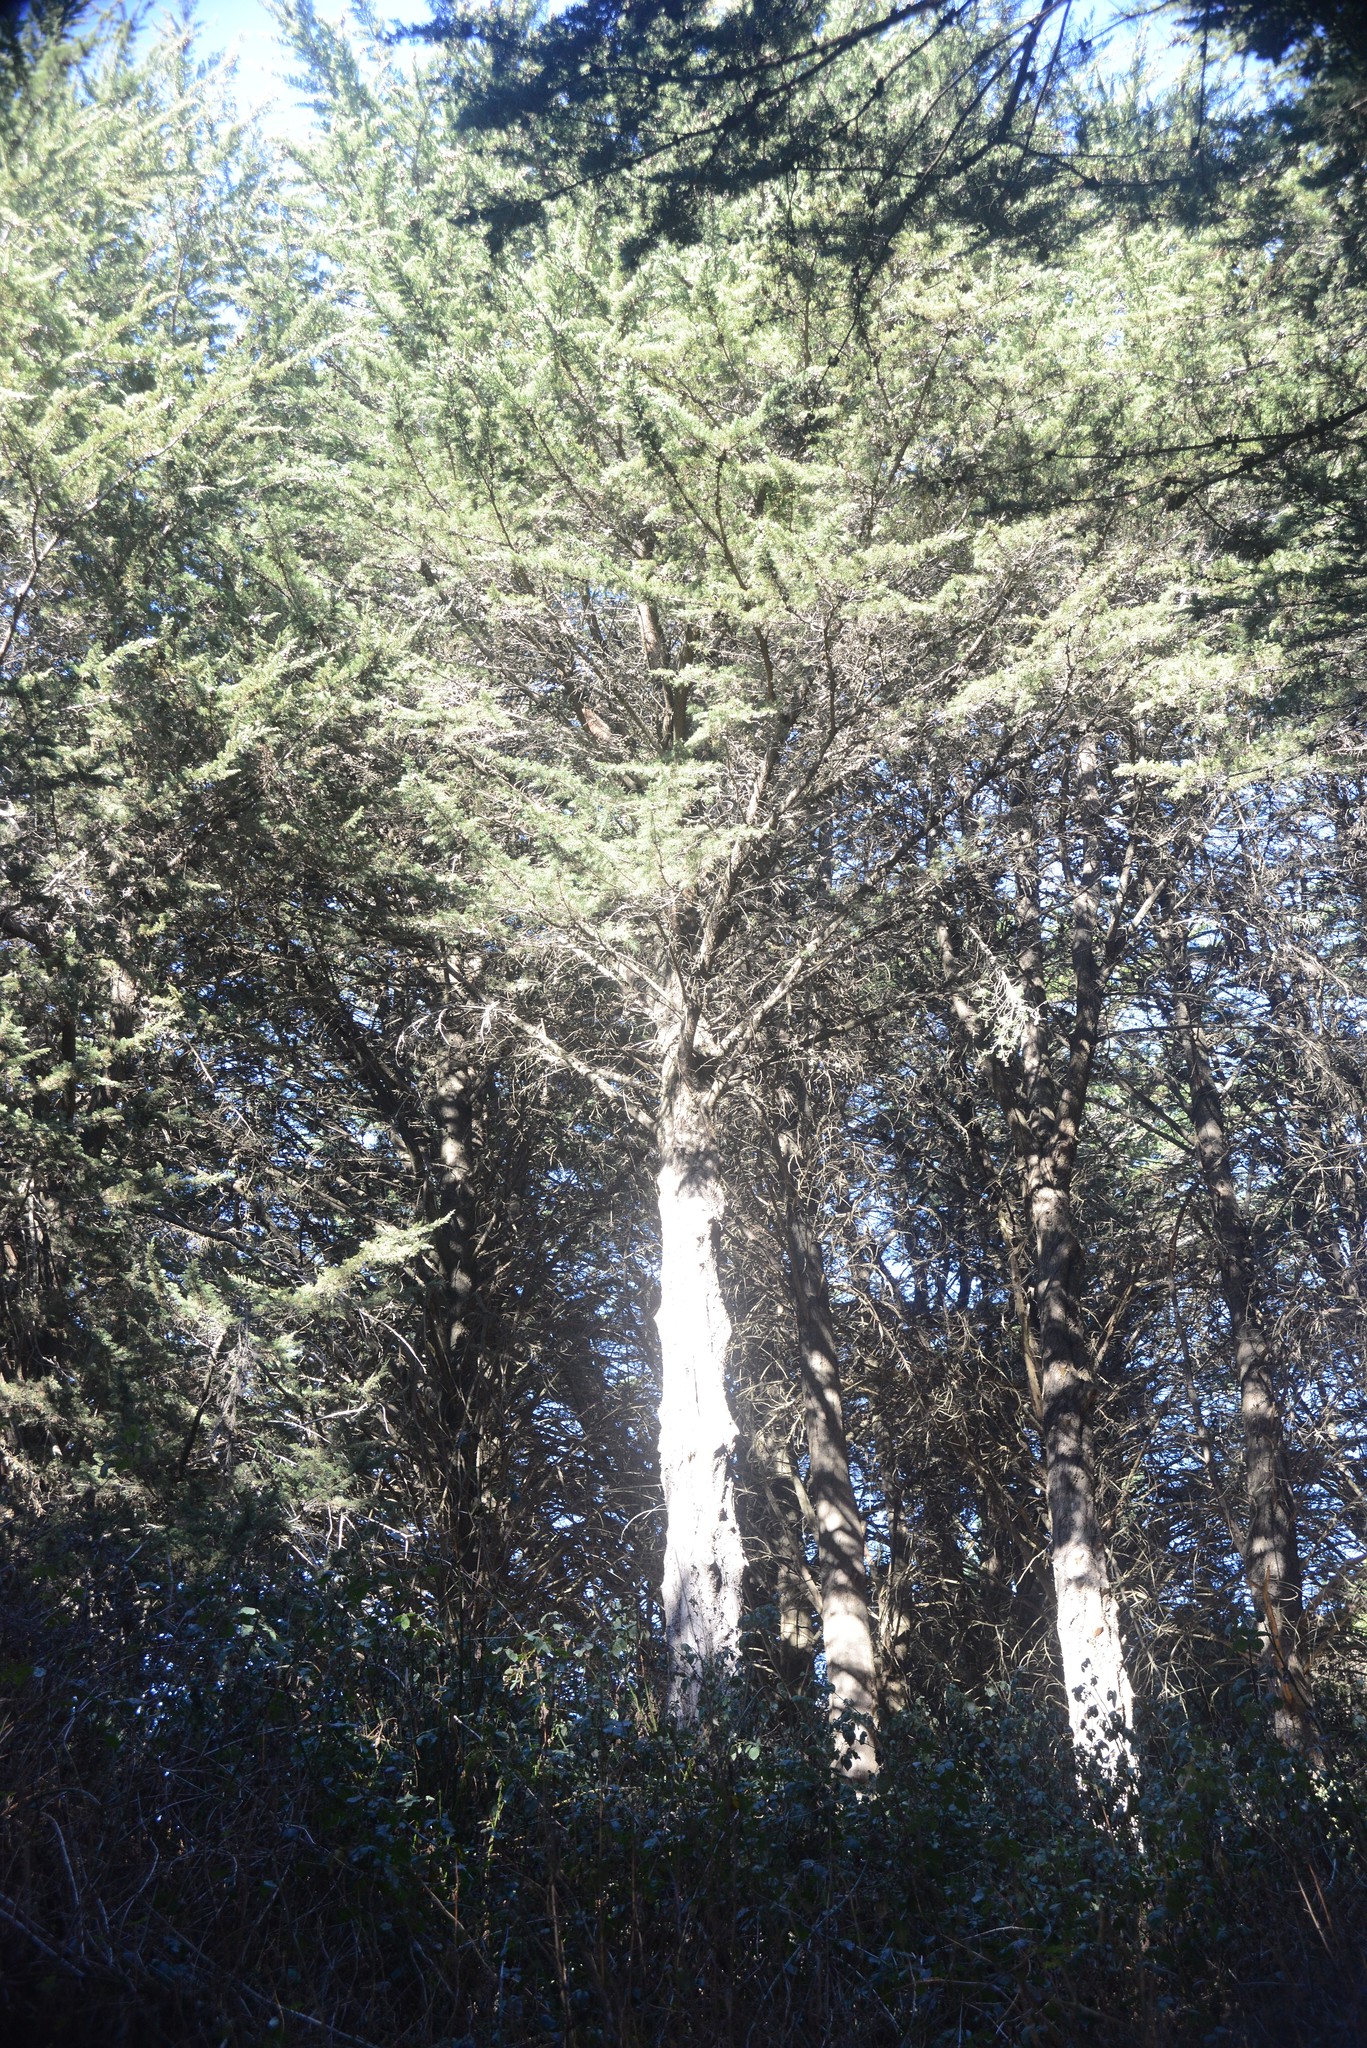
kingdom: Plantae
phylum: Tracheophyta
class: Pinopsida
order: Pinales
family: Cupressaceae
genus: Cupressus
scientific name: Cupressus macrocarpa
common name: Monterey cypress
